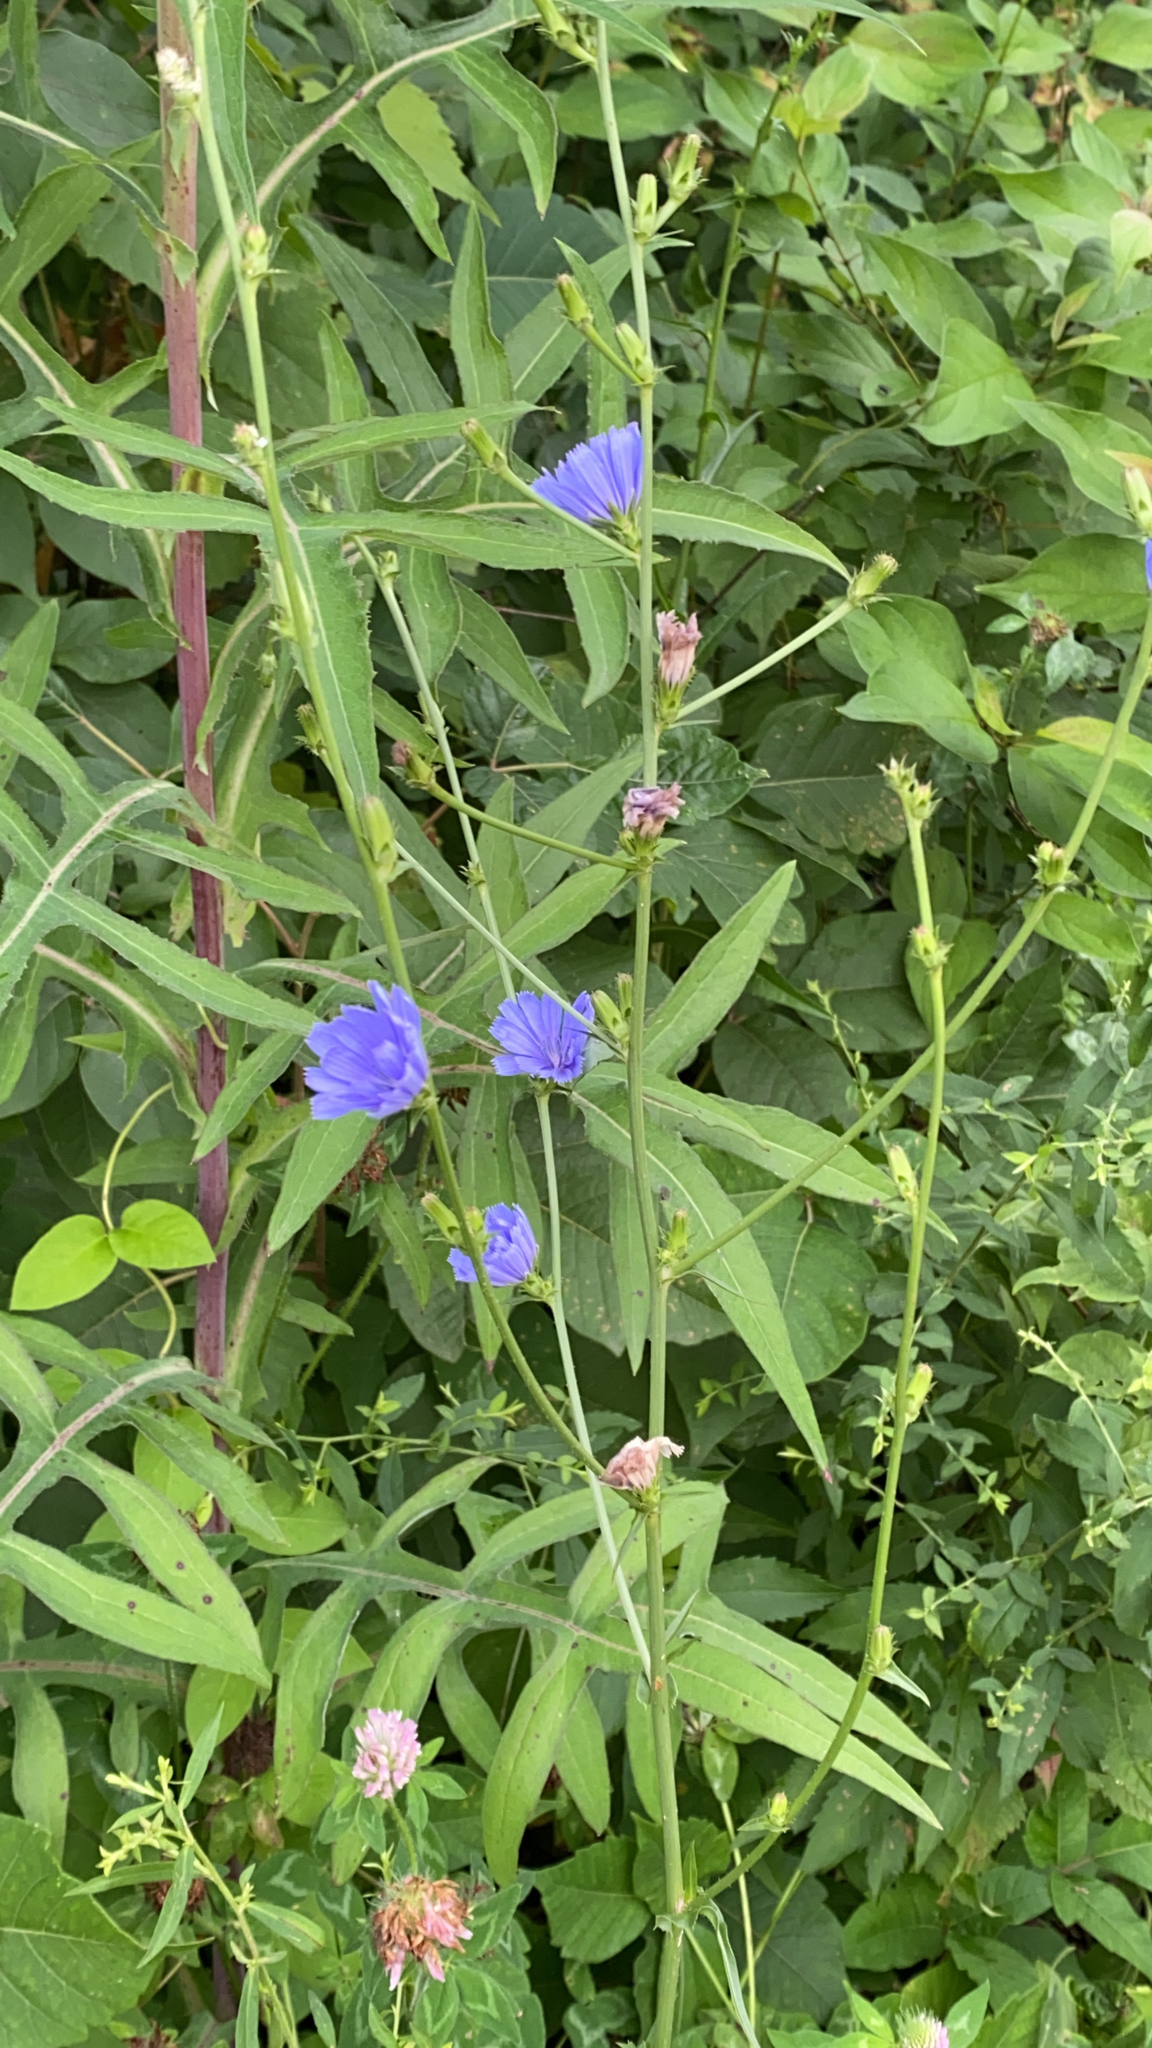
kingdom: Plantae
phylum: Tracheophyta
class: Magnoliopsida
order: Asterales
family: Asteraceae
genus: Cichorium
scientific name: Cichorium intybus
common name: Chicory
